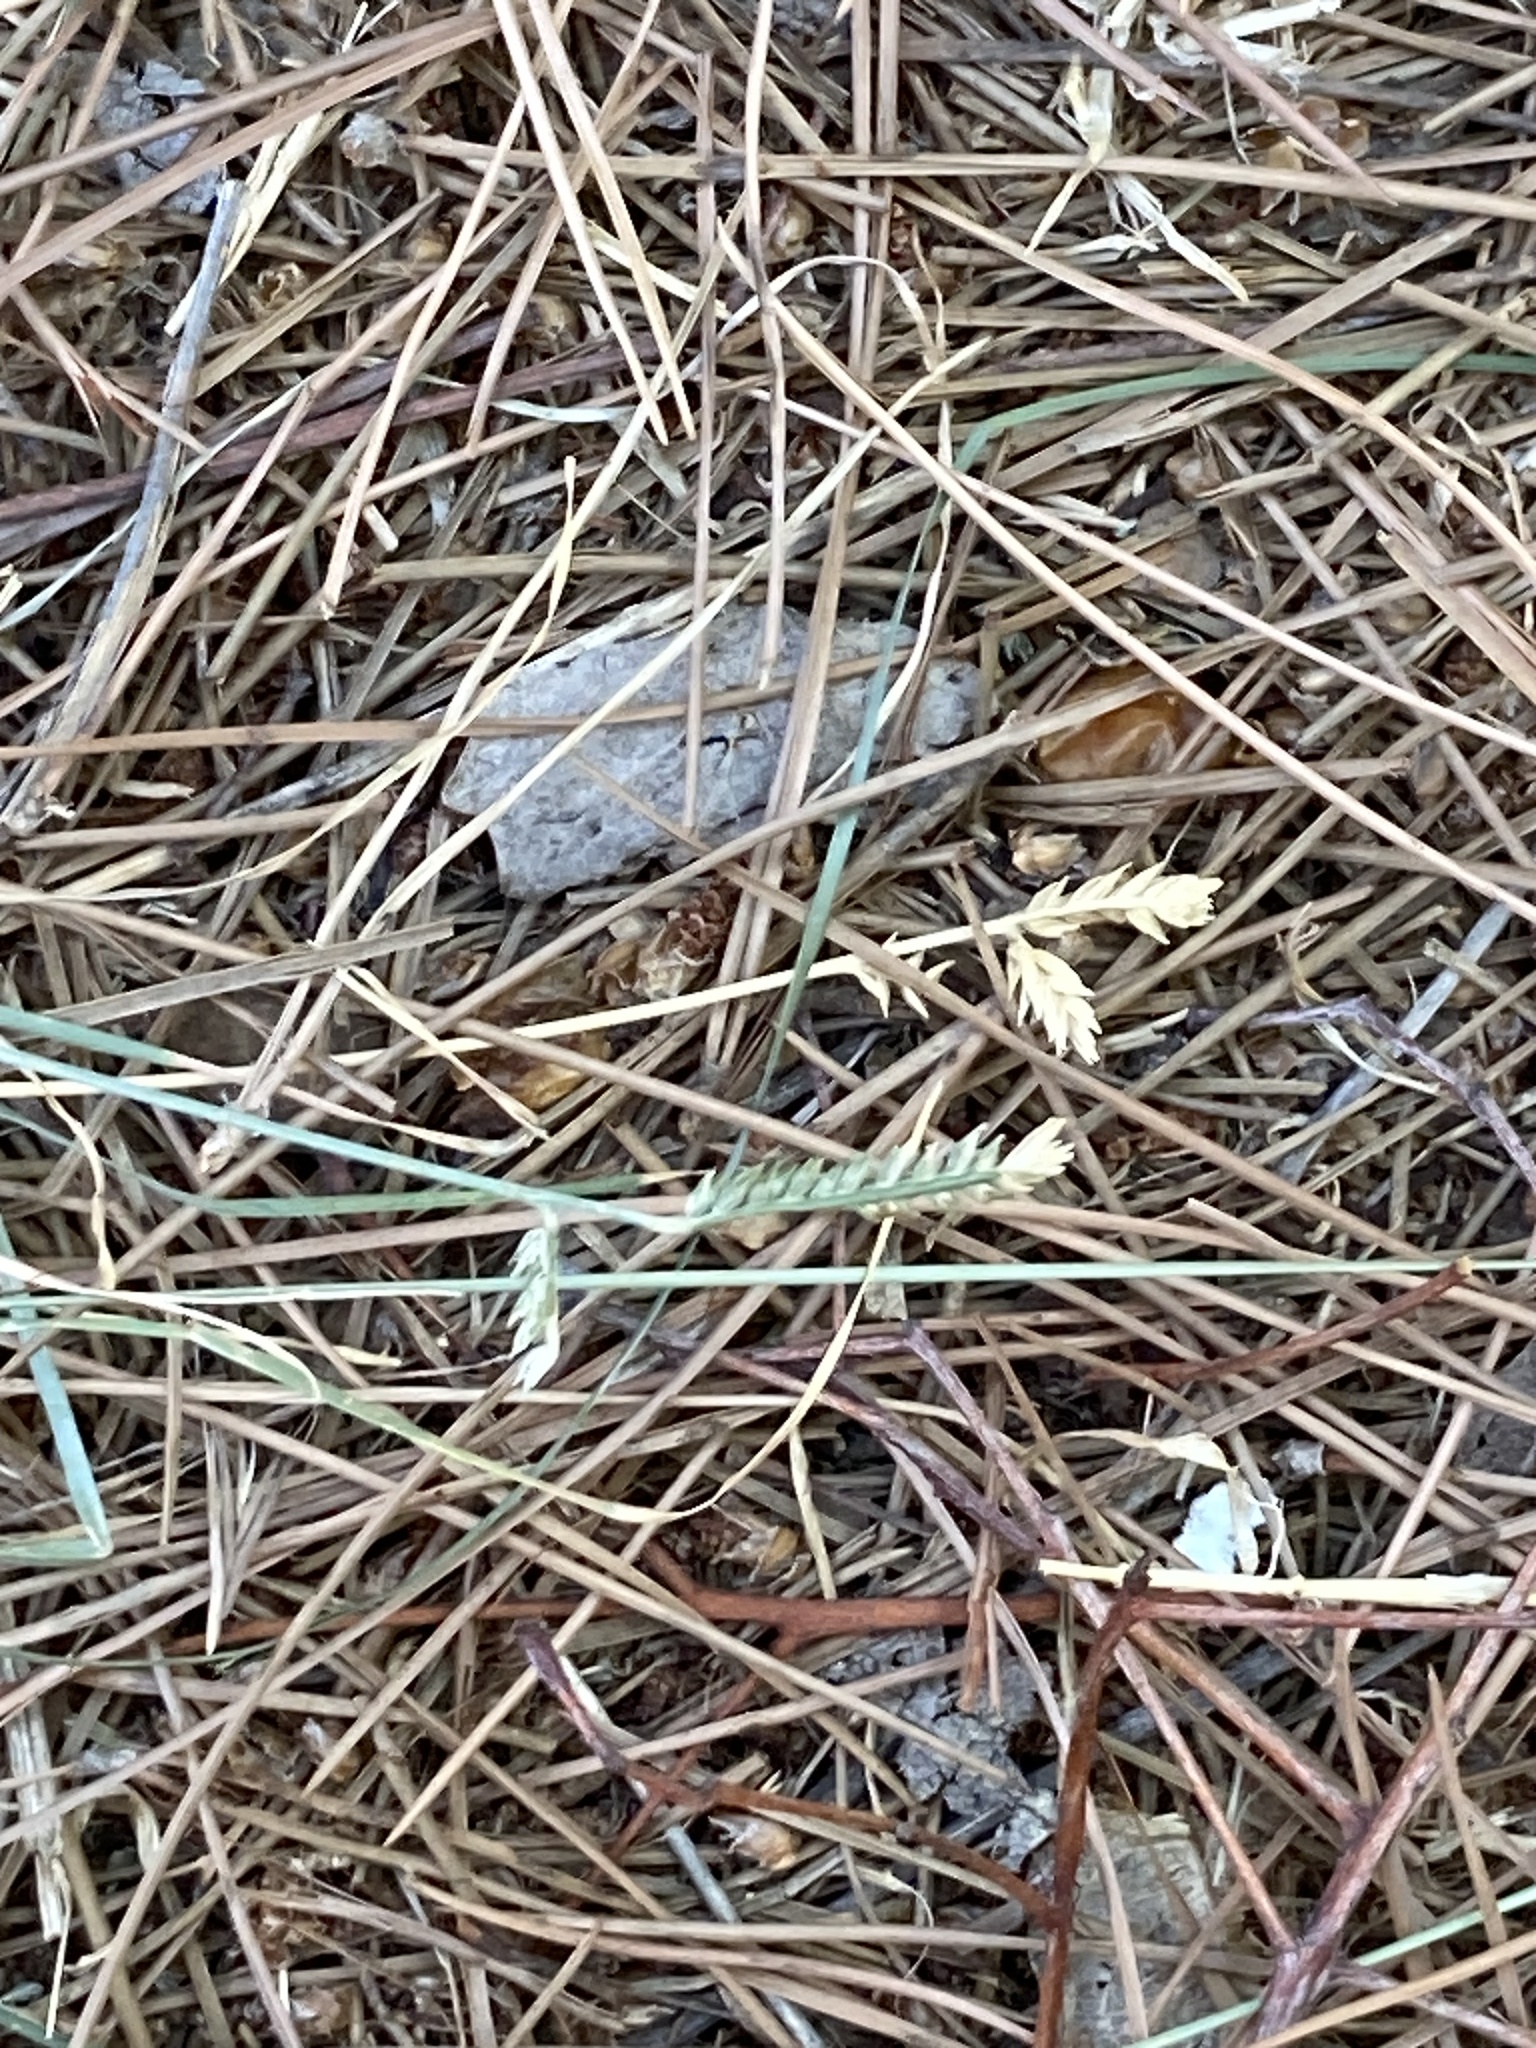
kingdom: Plantae
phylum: Tracheophyta
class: Liliopsida
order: Poales
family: Poaceae
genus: Eleusine
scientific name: Eleusine tristachya
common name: American yard-grass
